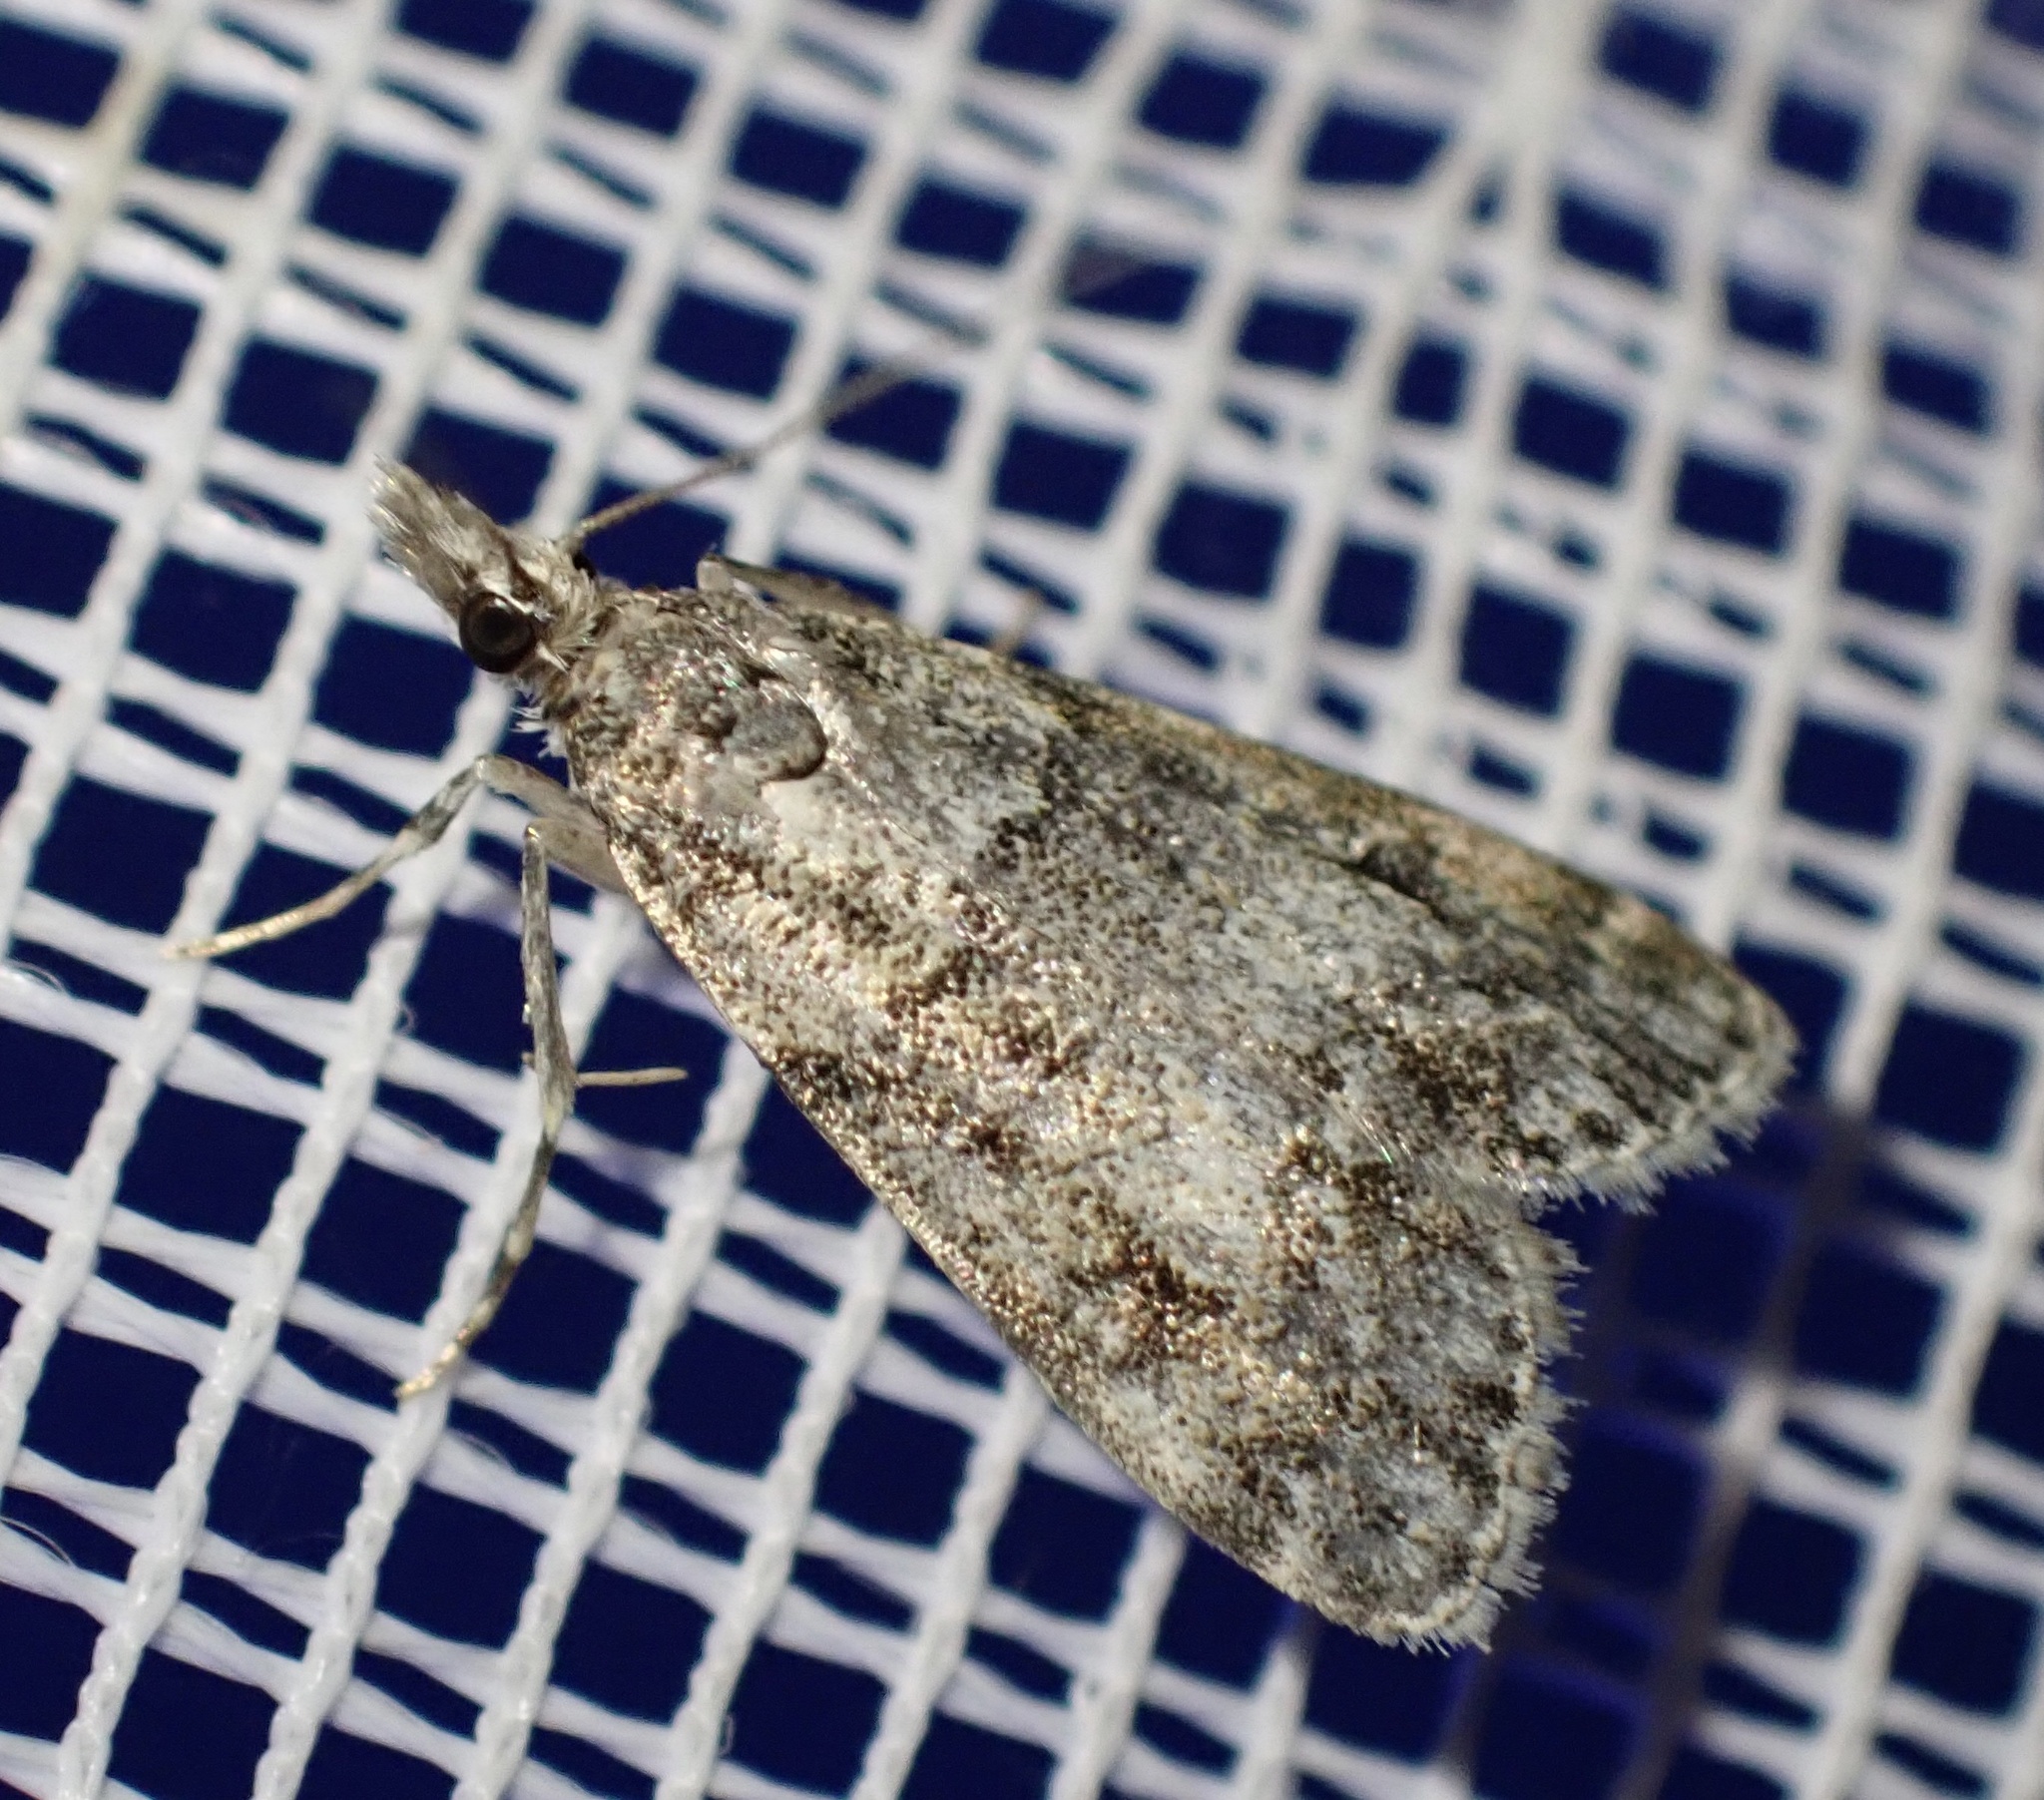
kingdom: Animalia
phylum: Arthropoda
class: Insecta
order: Lepidoptera
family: Crambidae
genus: Eudonia
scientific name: Eudonia lacustrata
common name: Little grey
